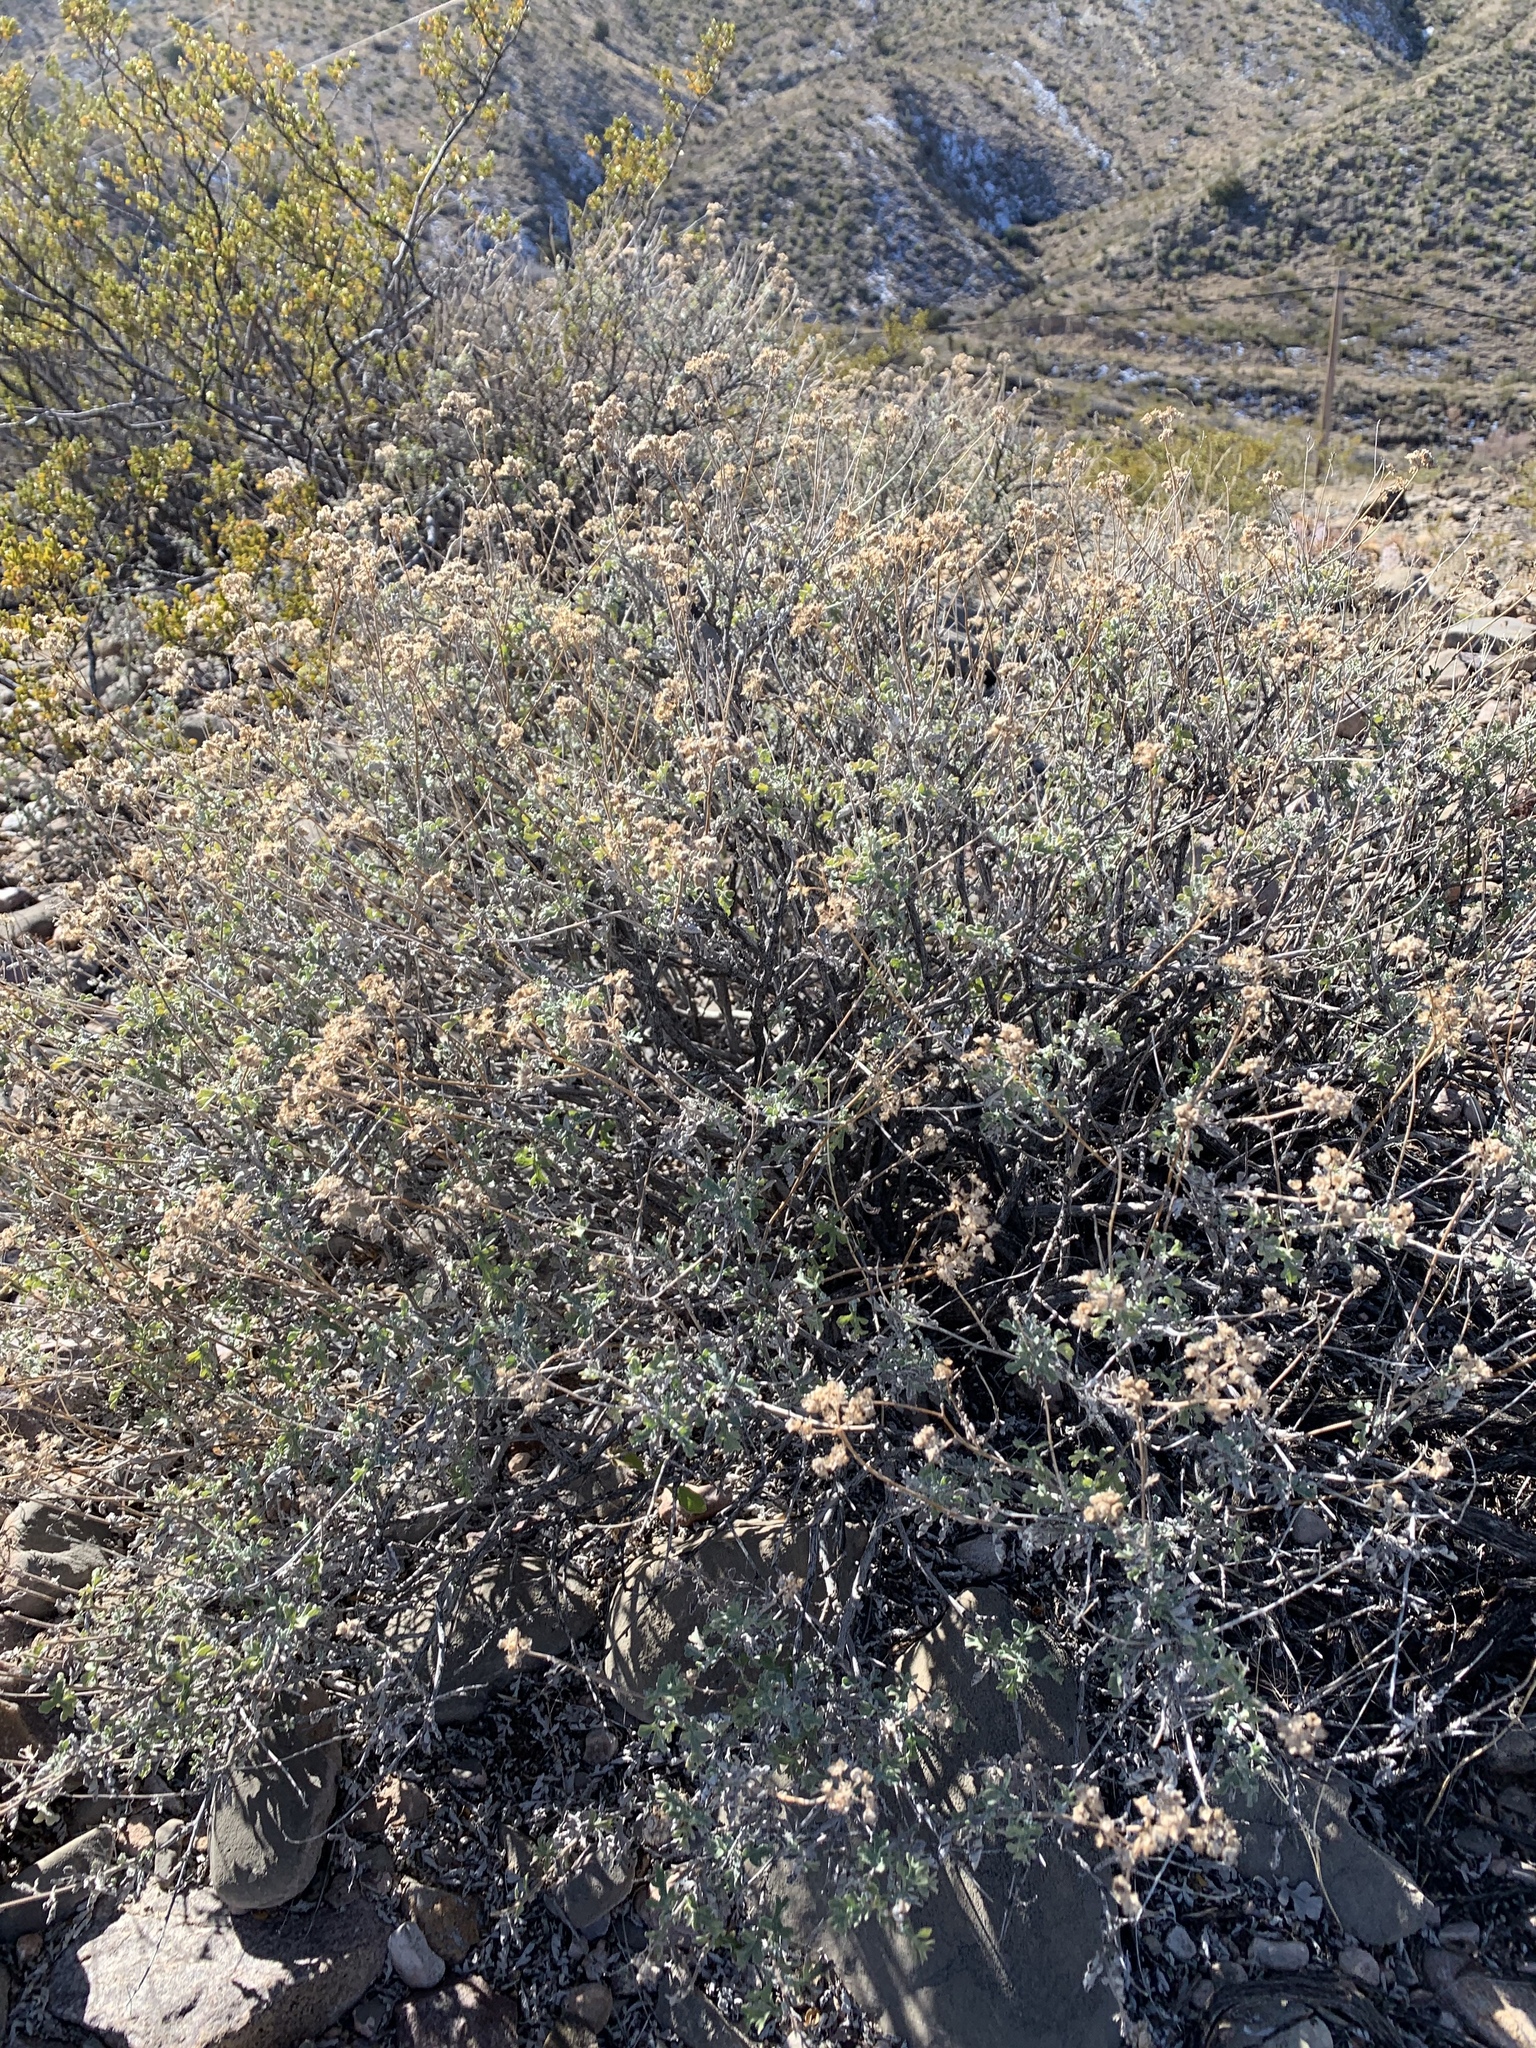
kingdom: Plantae
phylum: Tracheophyta
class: Magnoliopsida
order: Asterales
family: Asteraceae
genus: Parthenium
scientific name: Parthenium incanum
